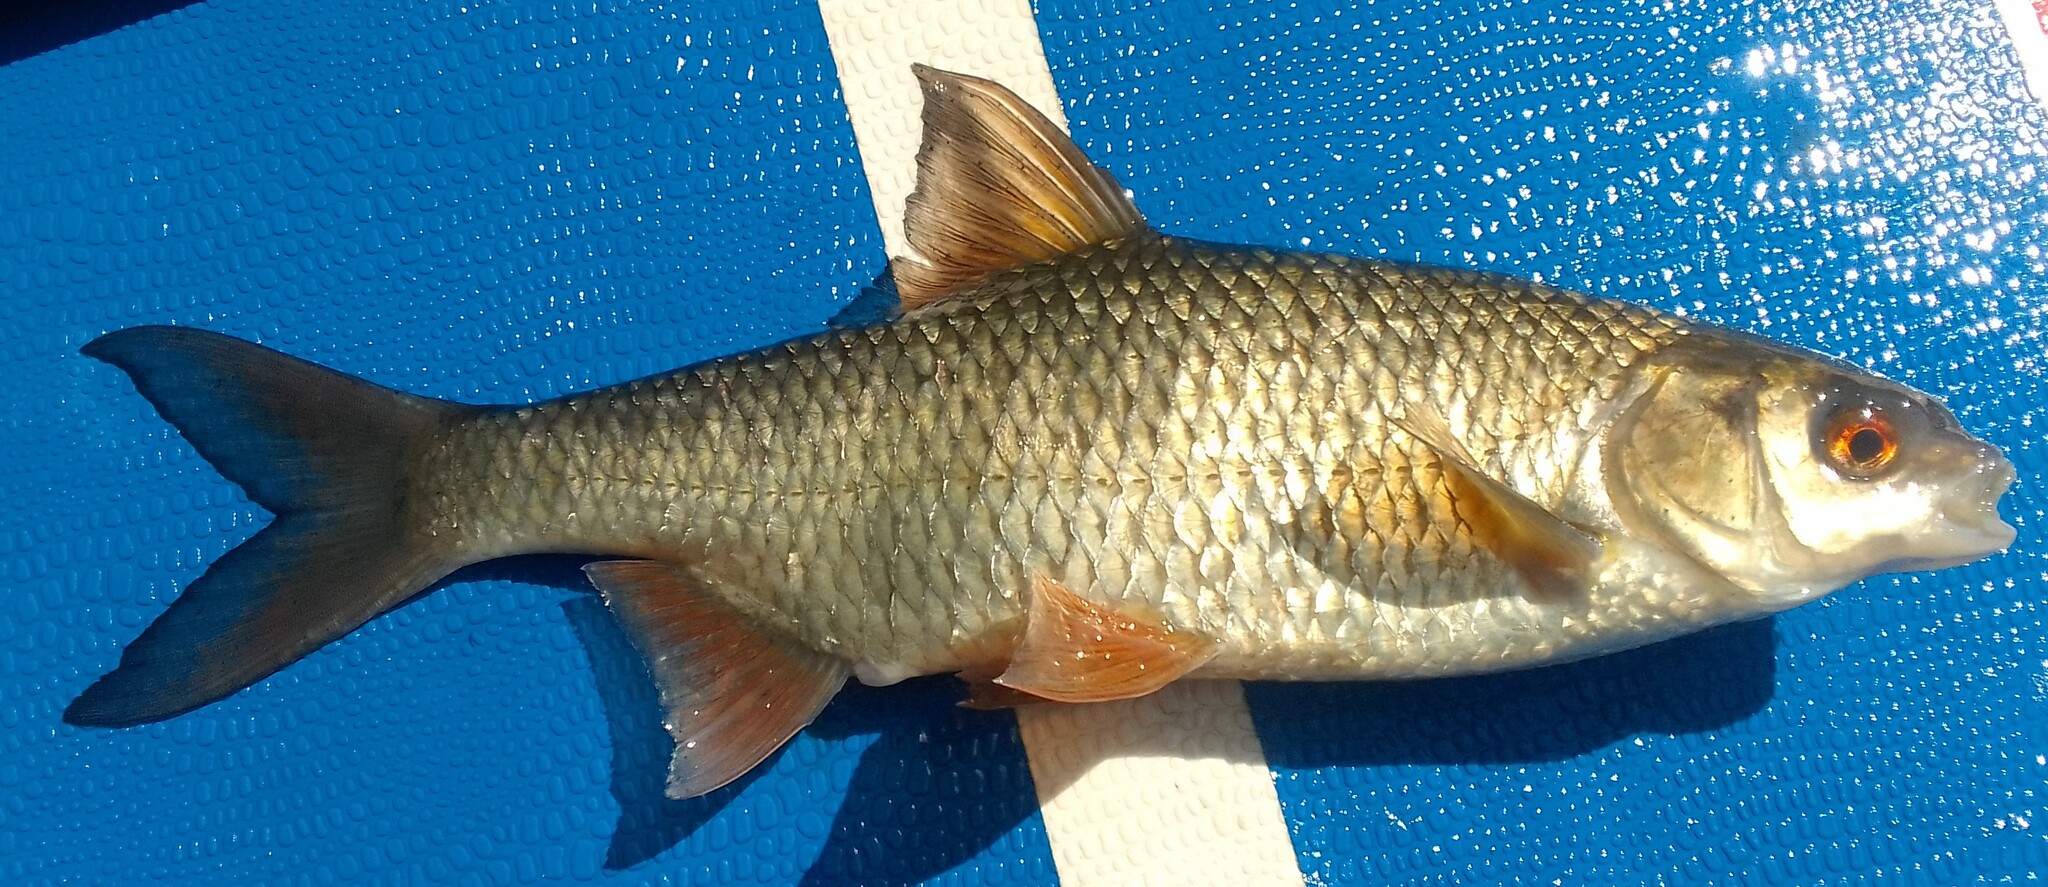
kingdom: Animalia
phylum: Chordata
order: Cypriniformes
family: Cyprinidae
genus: Rutilus
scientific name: Rutilus rutilus
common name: Roach
